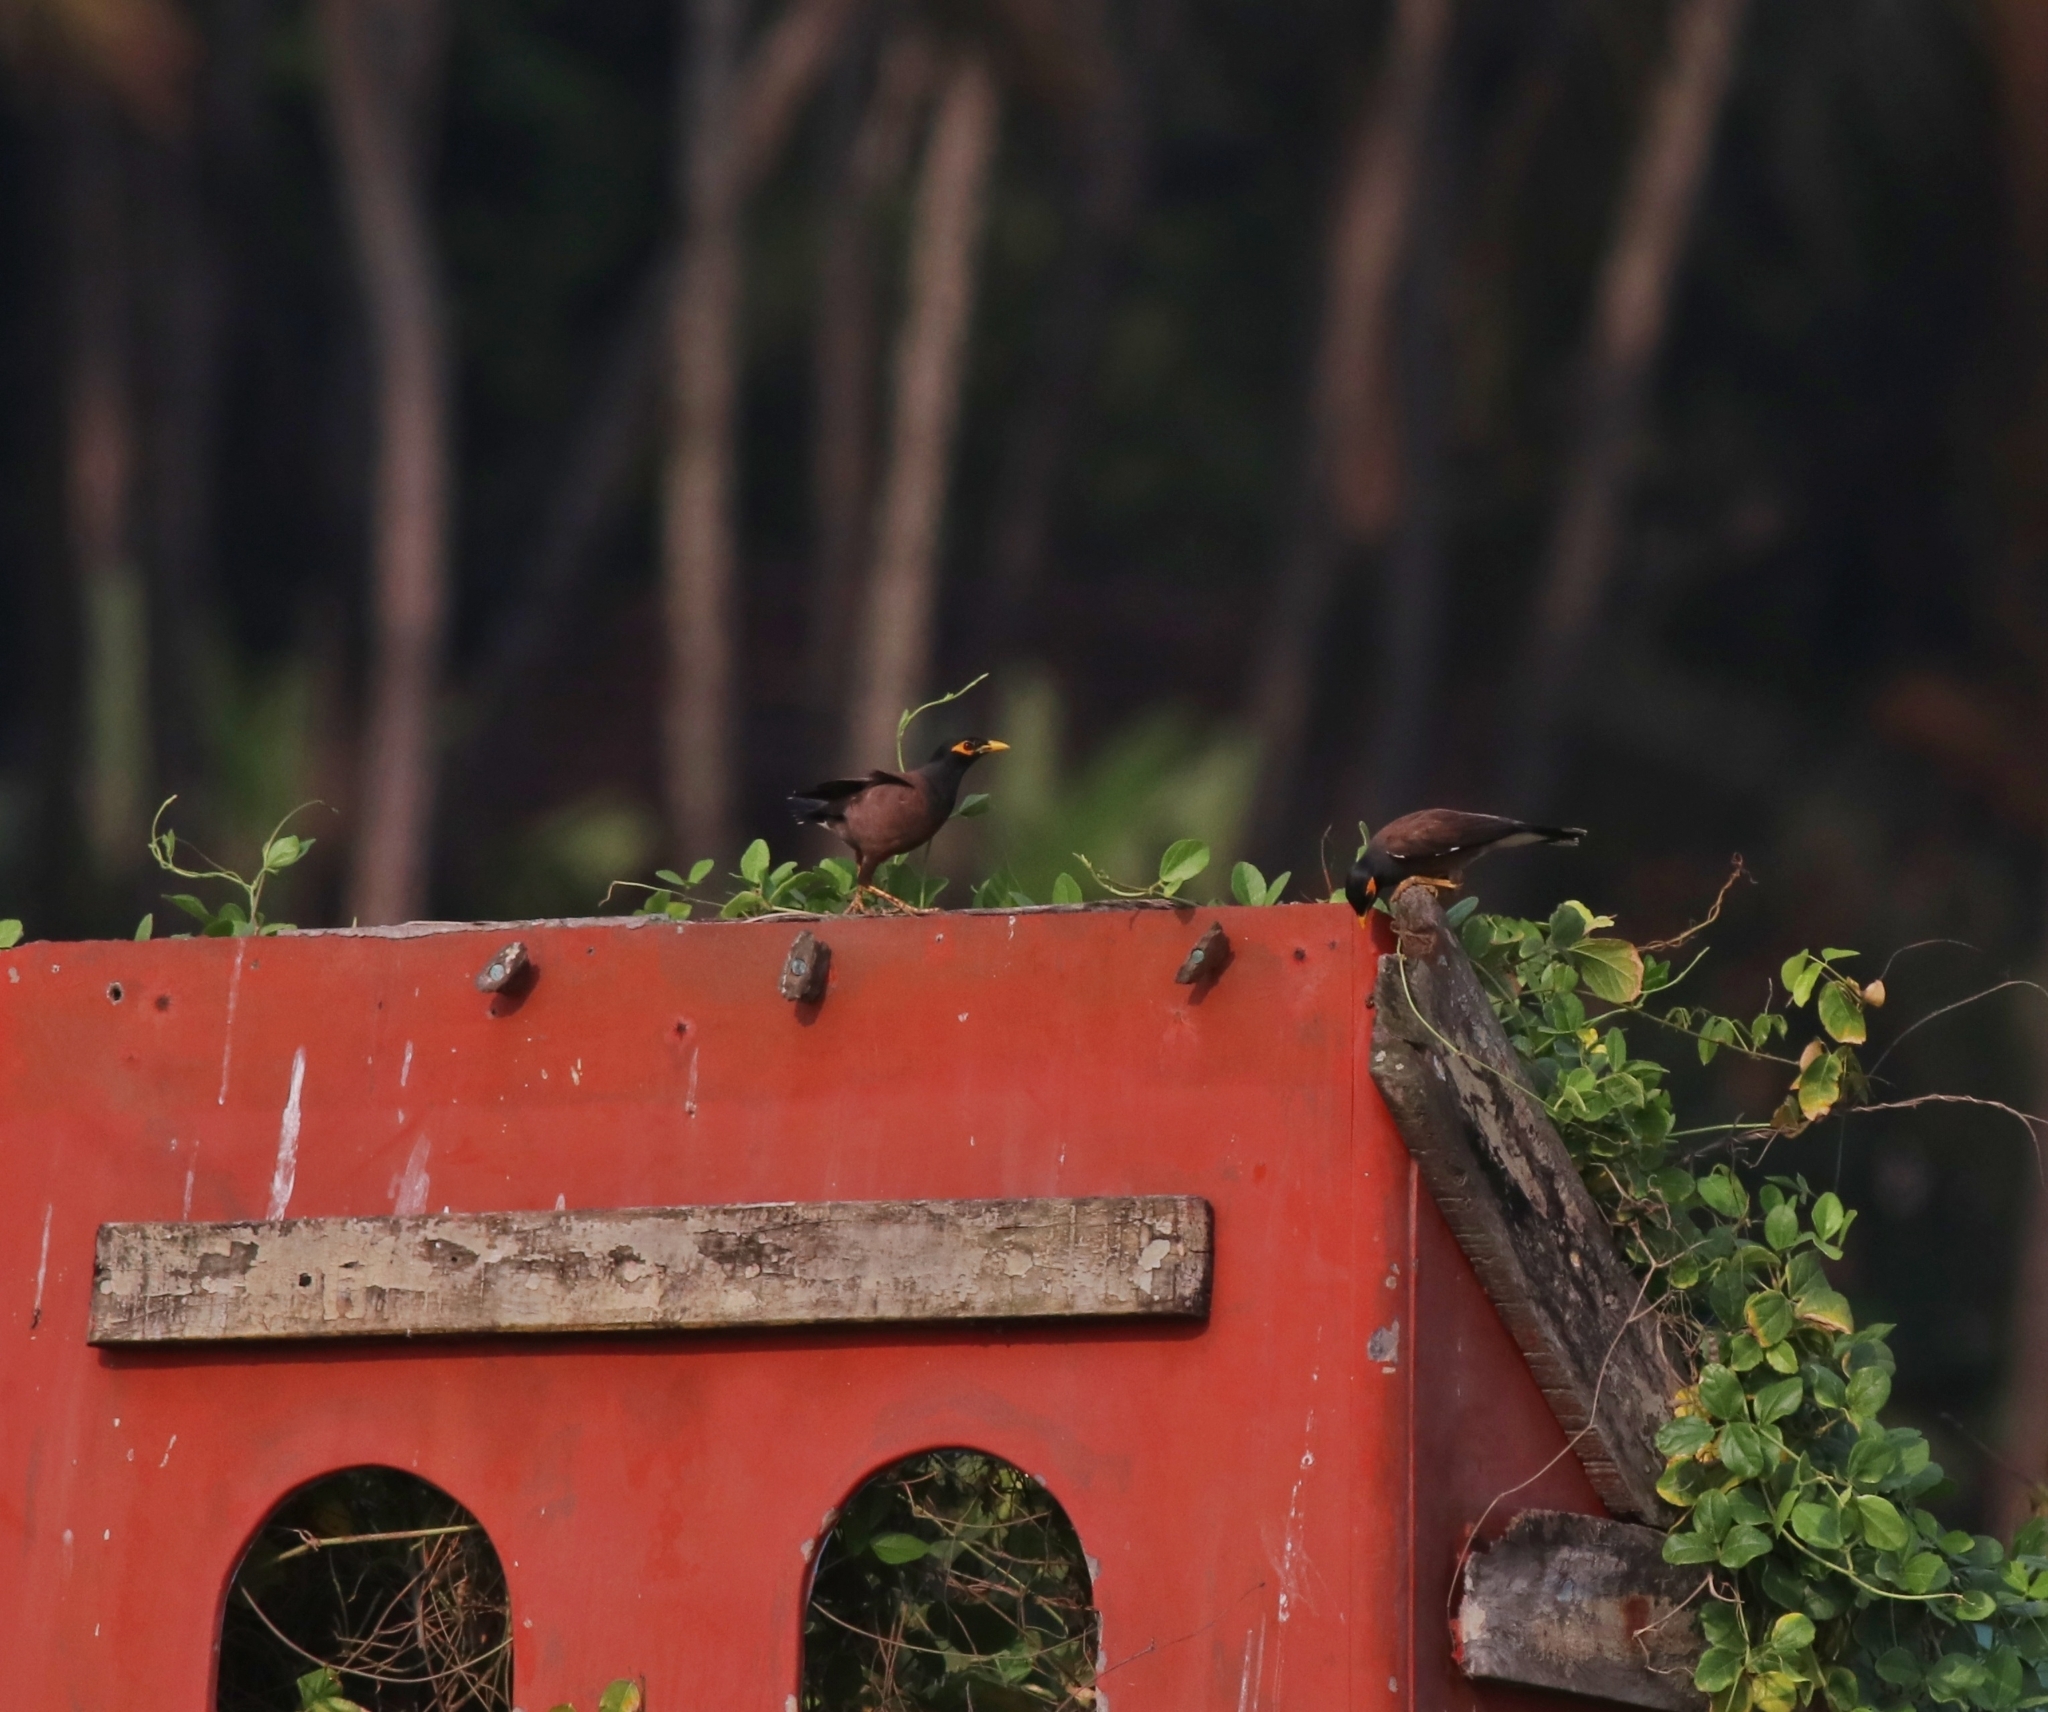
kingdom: Animalia
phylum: Chordata
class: Aves
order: Passeriformes
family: Sturnidae
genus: Acridotheres
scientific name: Acridotheres tristis
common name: Common myna
